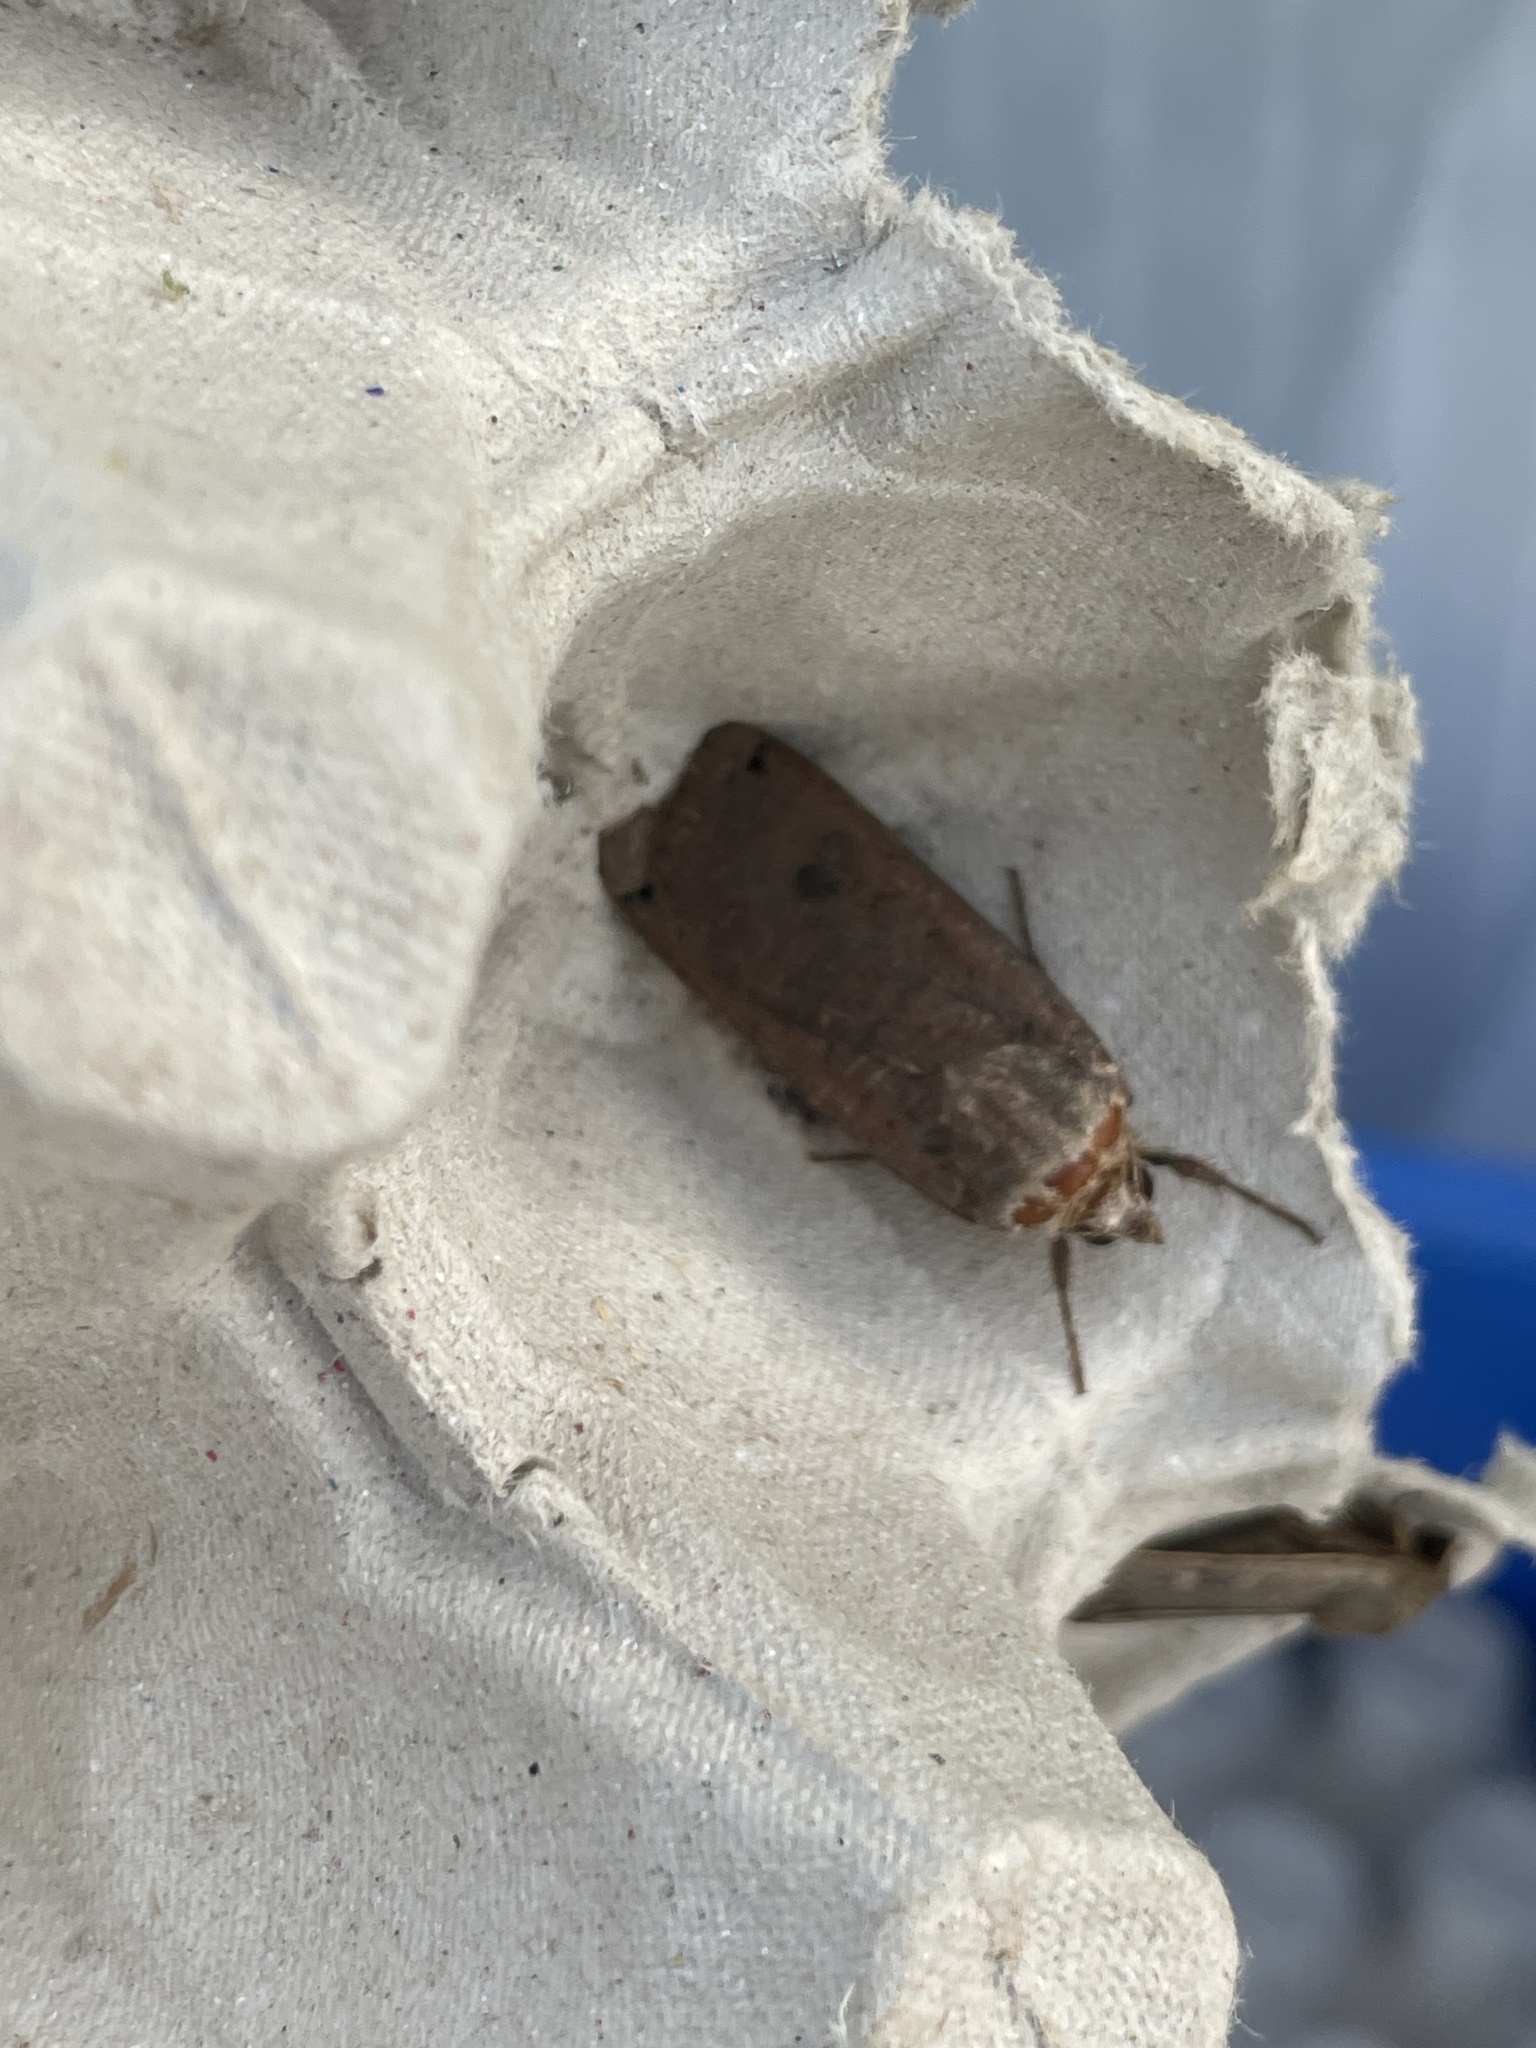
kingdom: Animalia
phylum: Arthropoda
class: Insecta
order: Lepidoptera
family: Noctuidae
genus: Noctua
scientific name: Noctua pronuba
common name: Large yellow underwing
